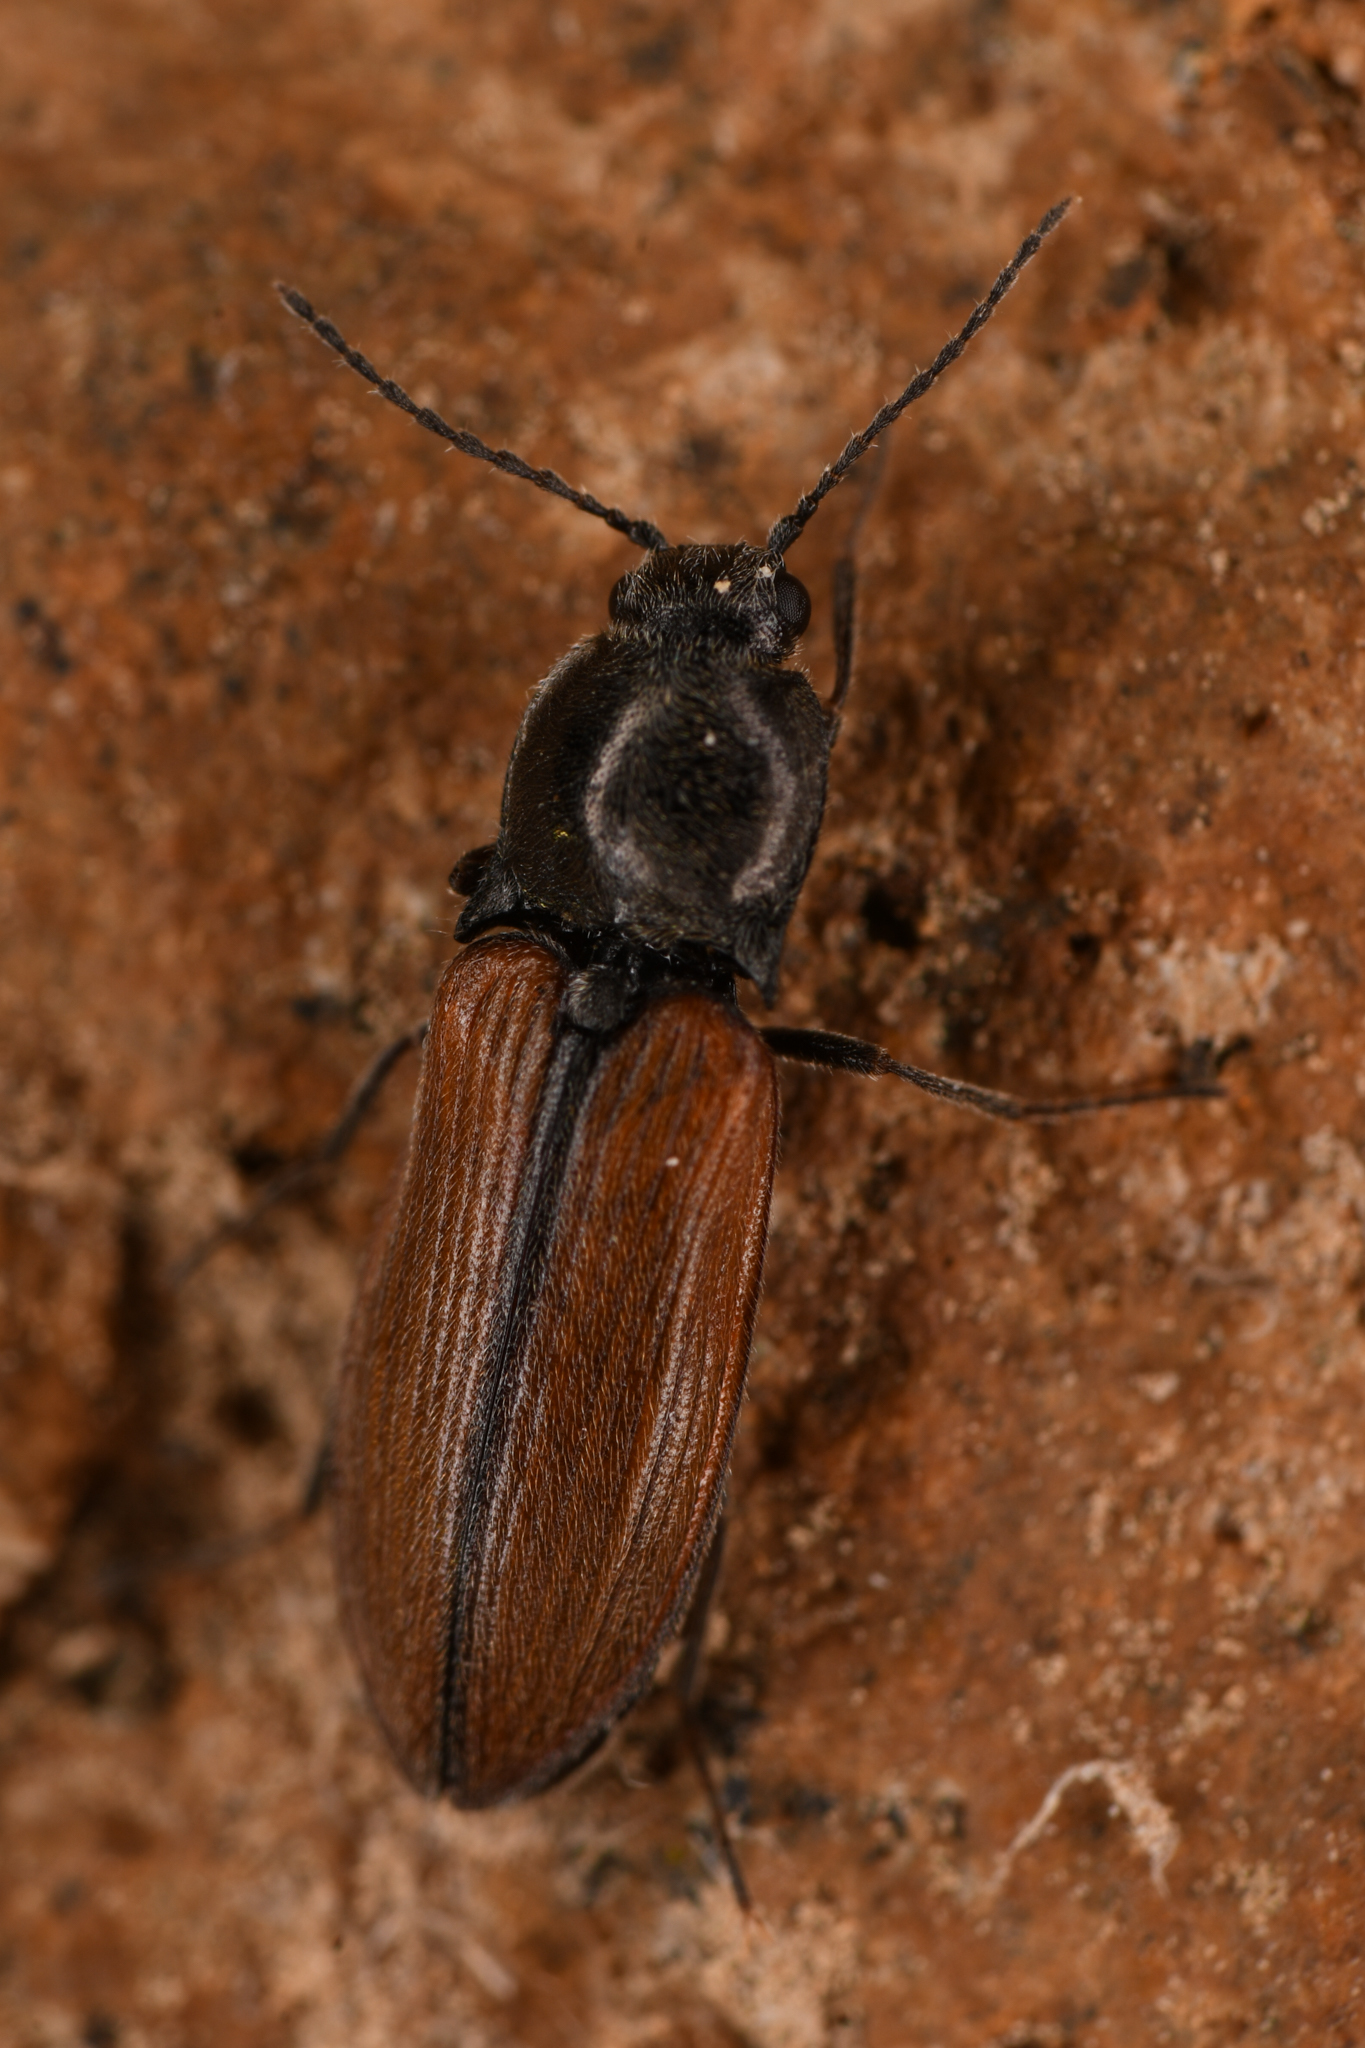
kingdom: Animalia
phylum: Arthropoda
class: Insecta
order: Coleoptera
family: Elateridae
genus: Pseudanostirus
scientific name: Pseudanostirus ochreipennis
